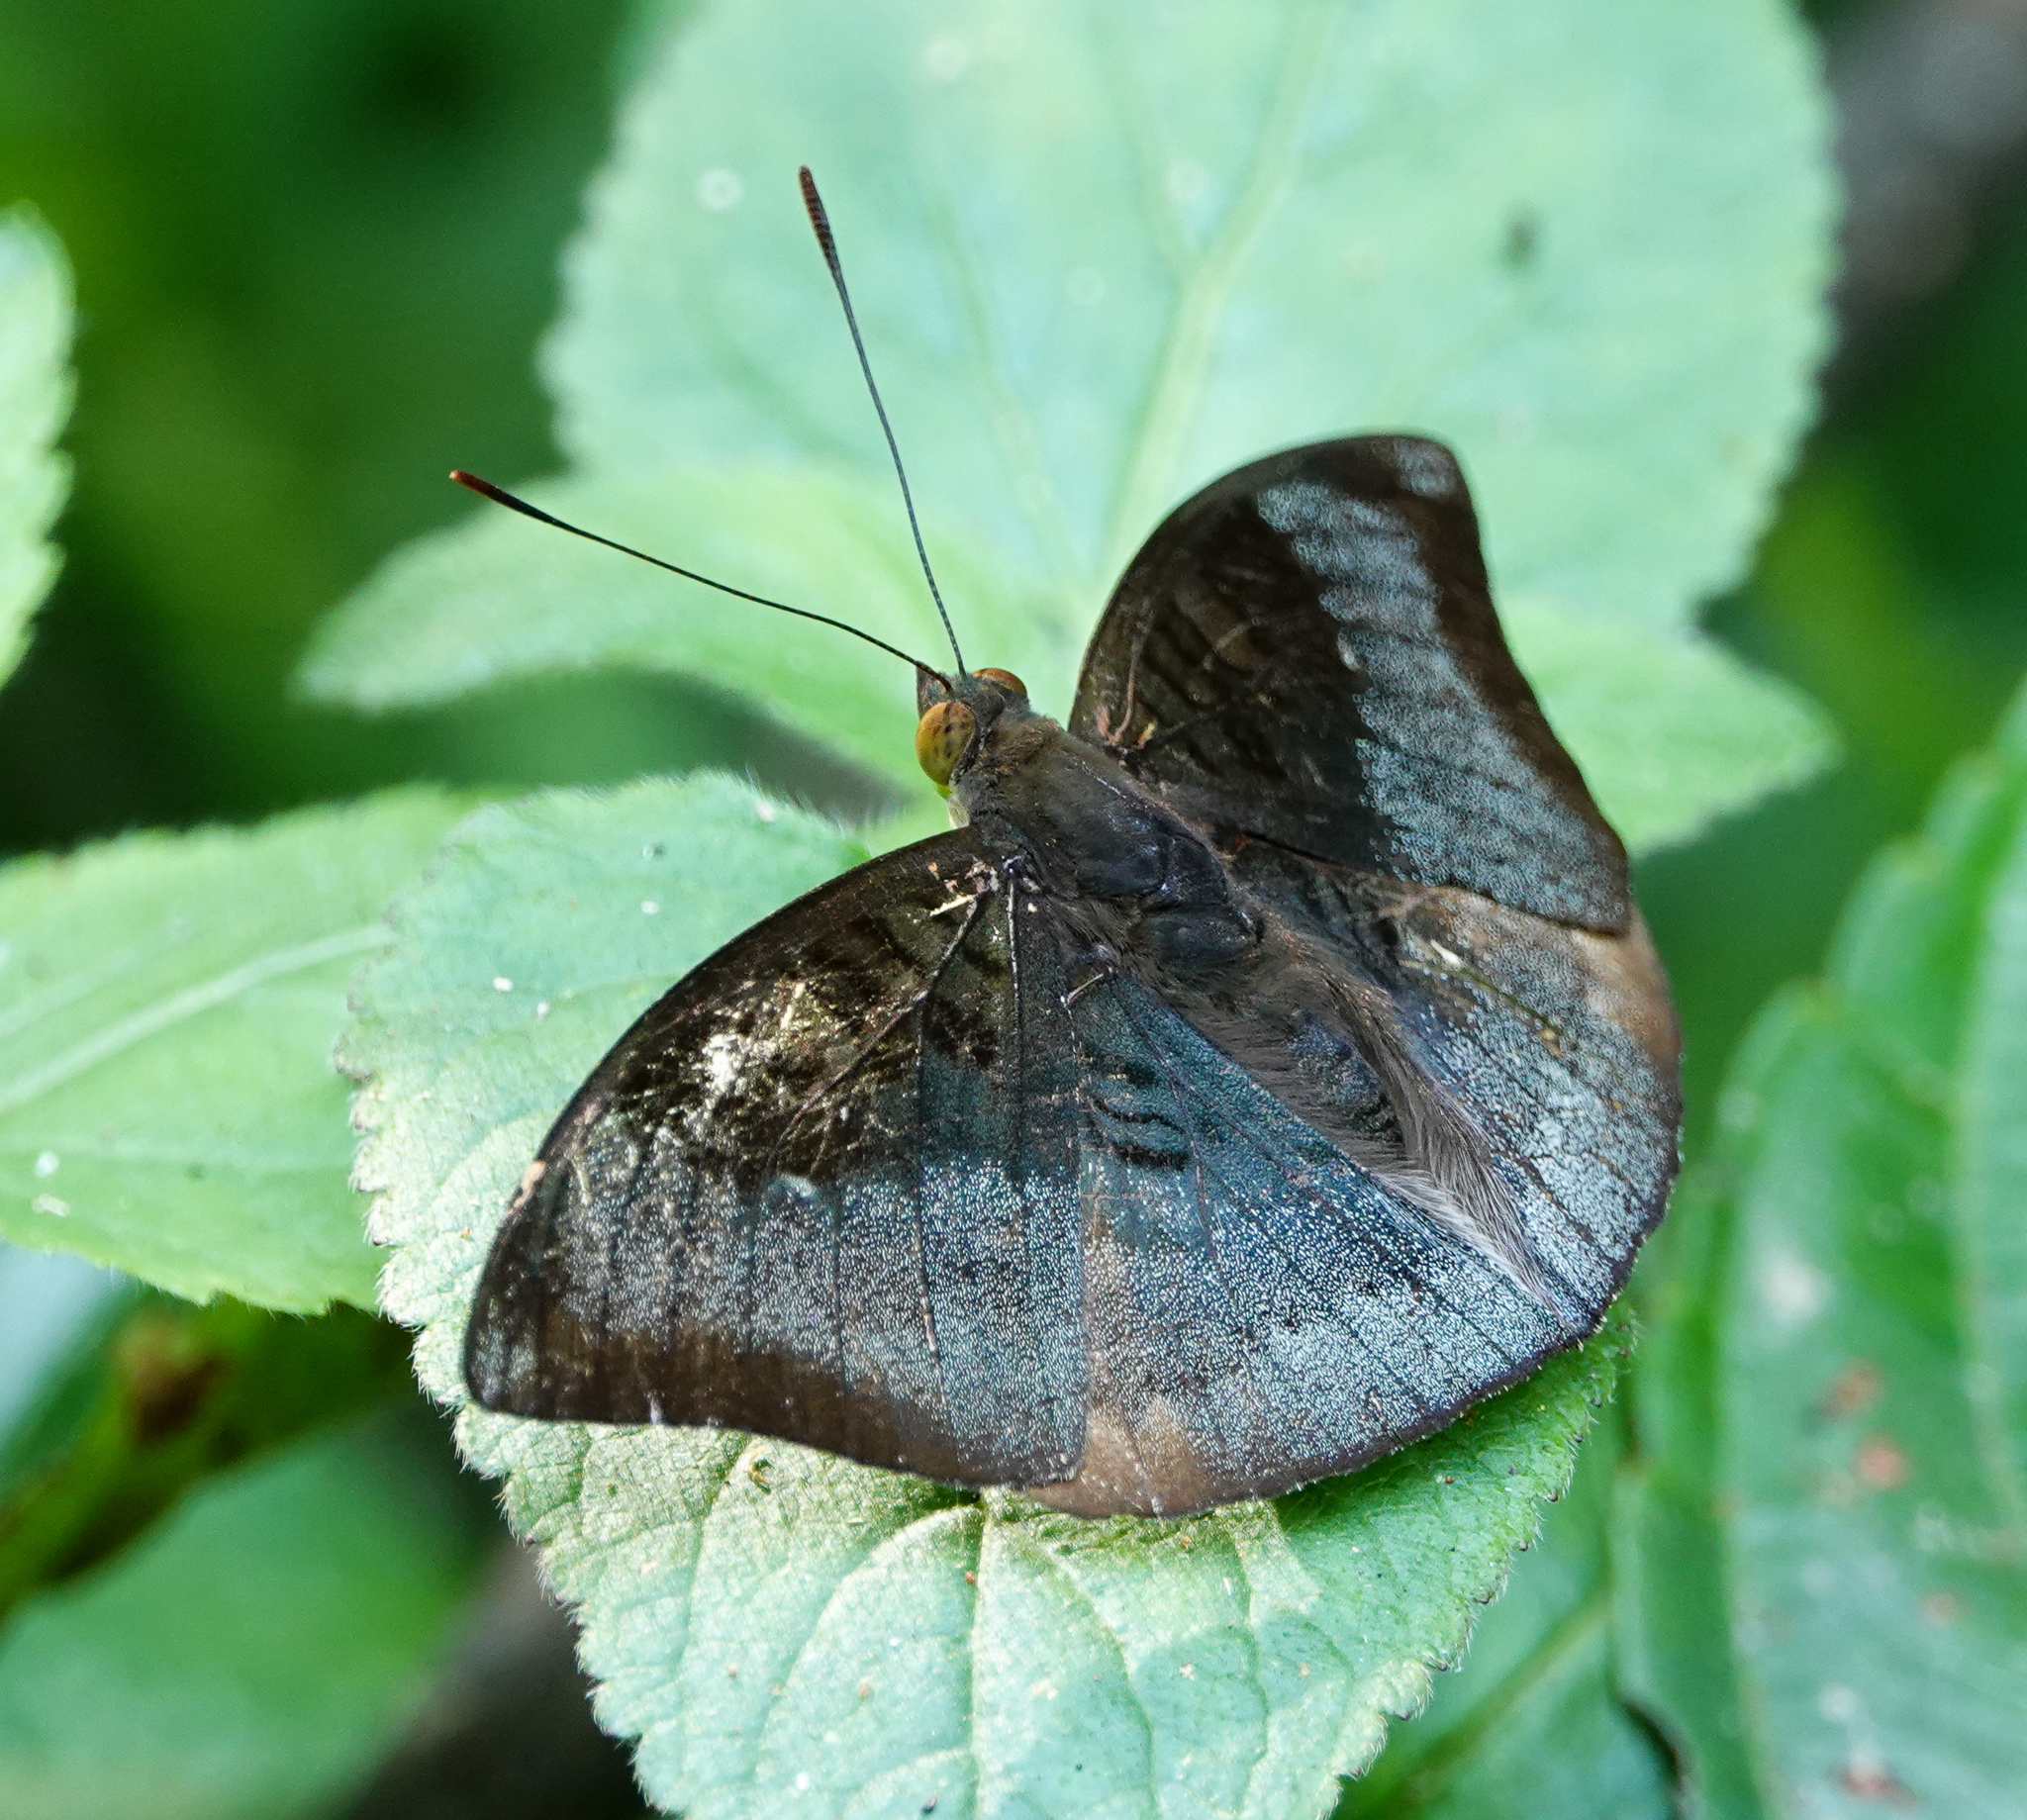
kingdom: Animalia
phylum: Arthropoda
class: Insecta
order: Lepidoptera
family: Nymphalidae
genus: Euthalia
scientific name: Euthalia monina
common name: Powdered baron
